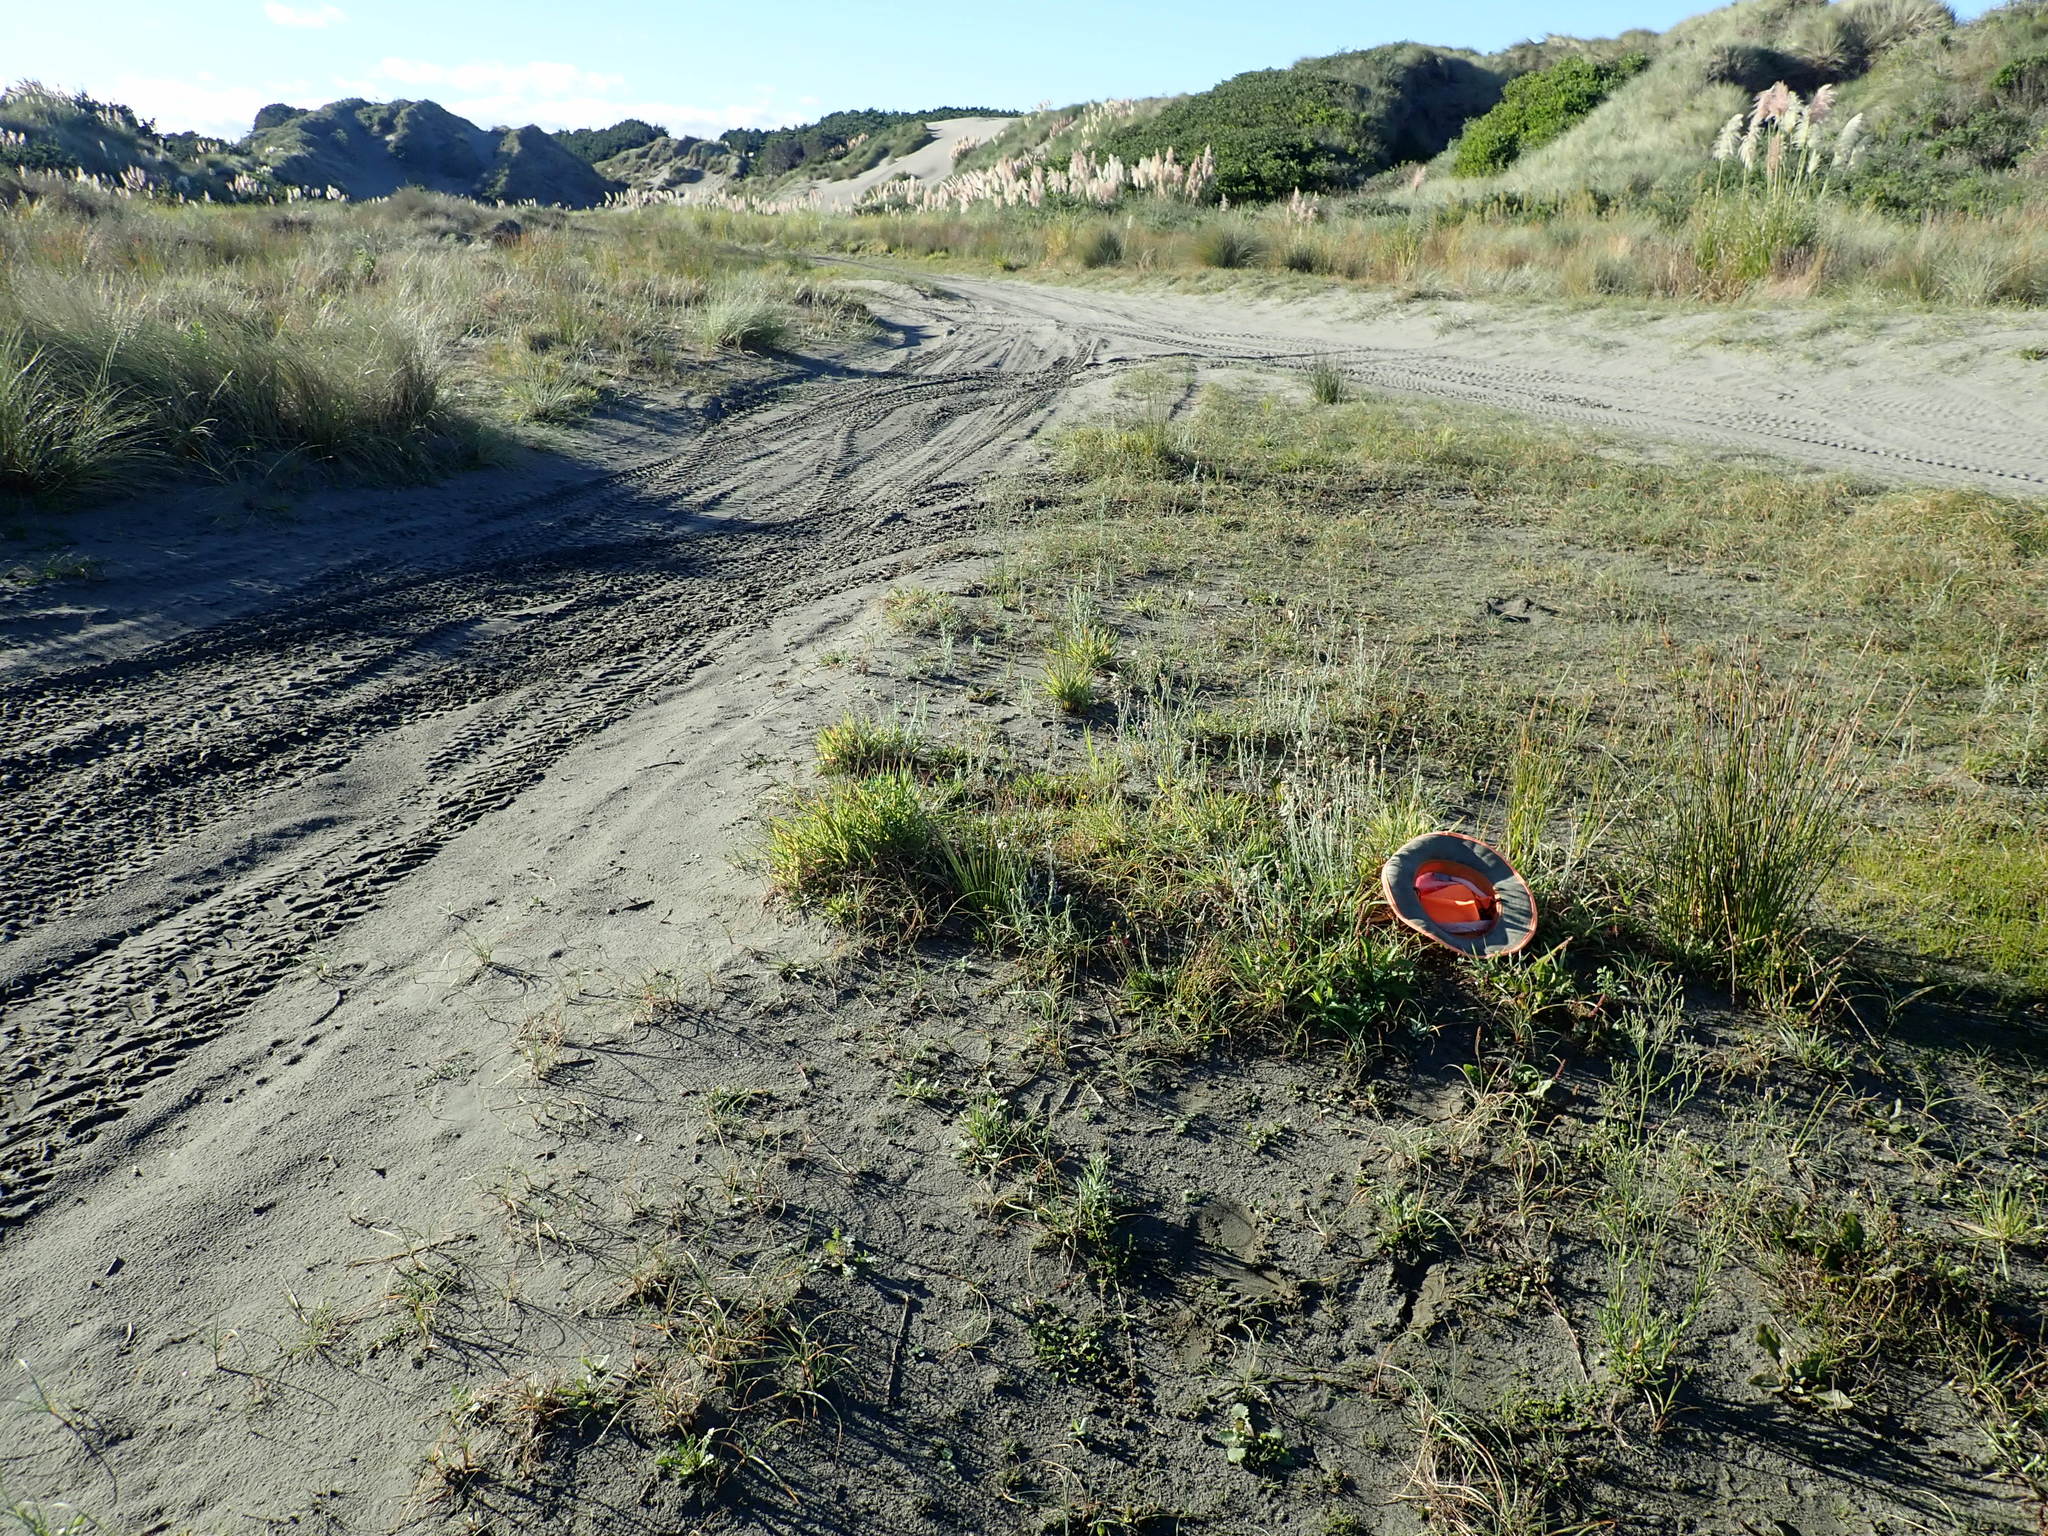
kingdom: Plantae
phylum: Tracheophyta
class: Magnoliopsida
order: Lamiales
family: Plantaginaceae
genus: Plantago
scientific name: Plantago major
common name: Common plantain
